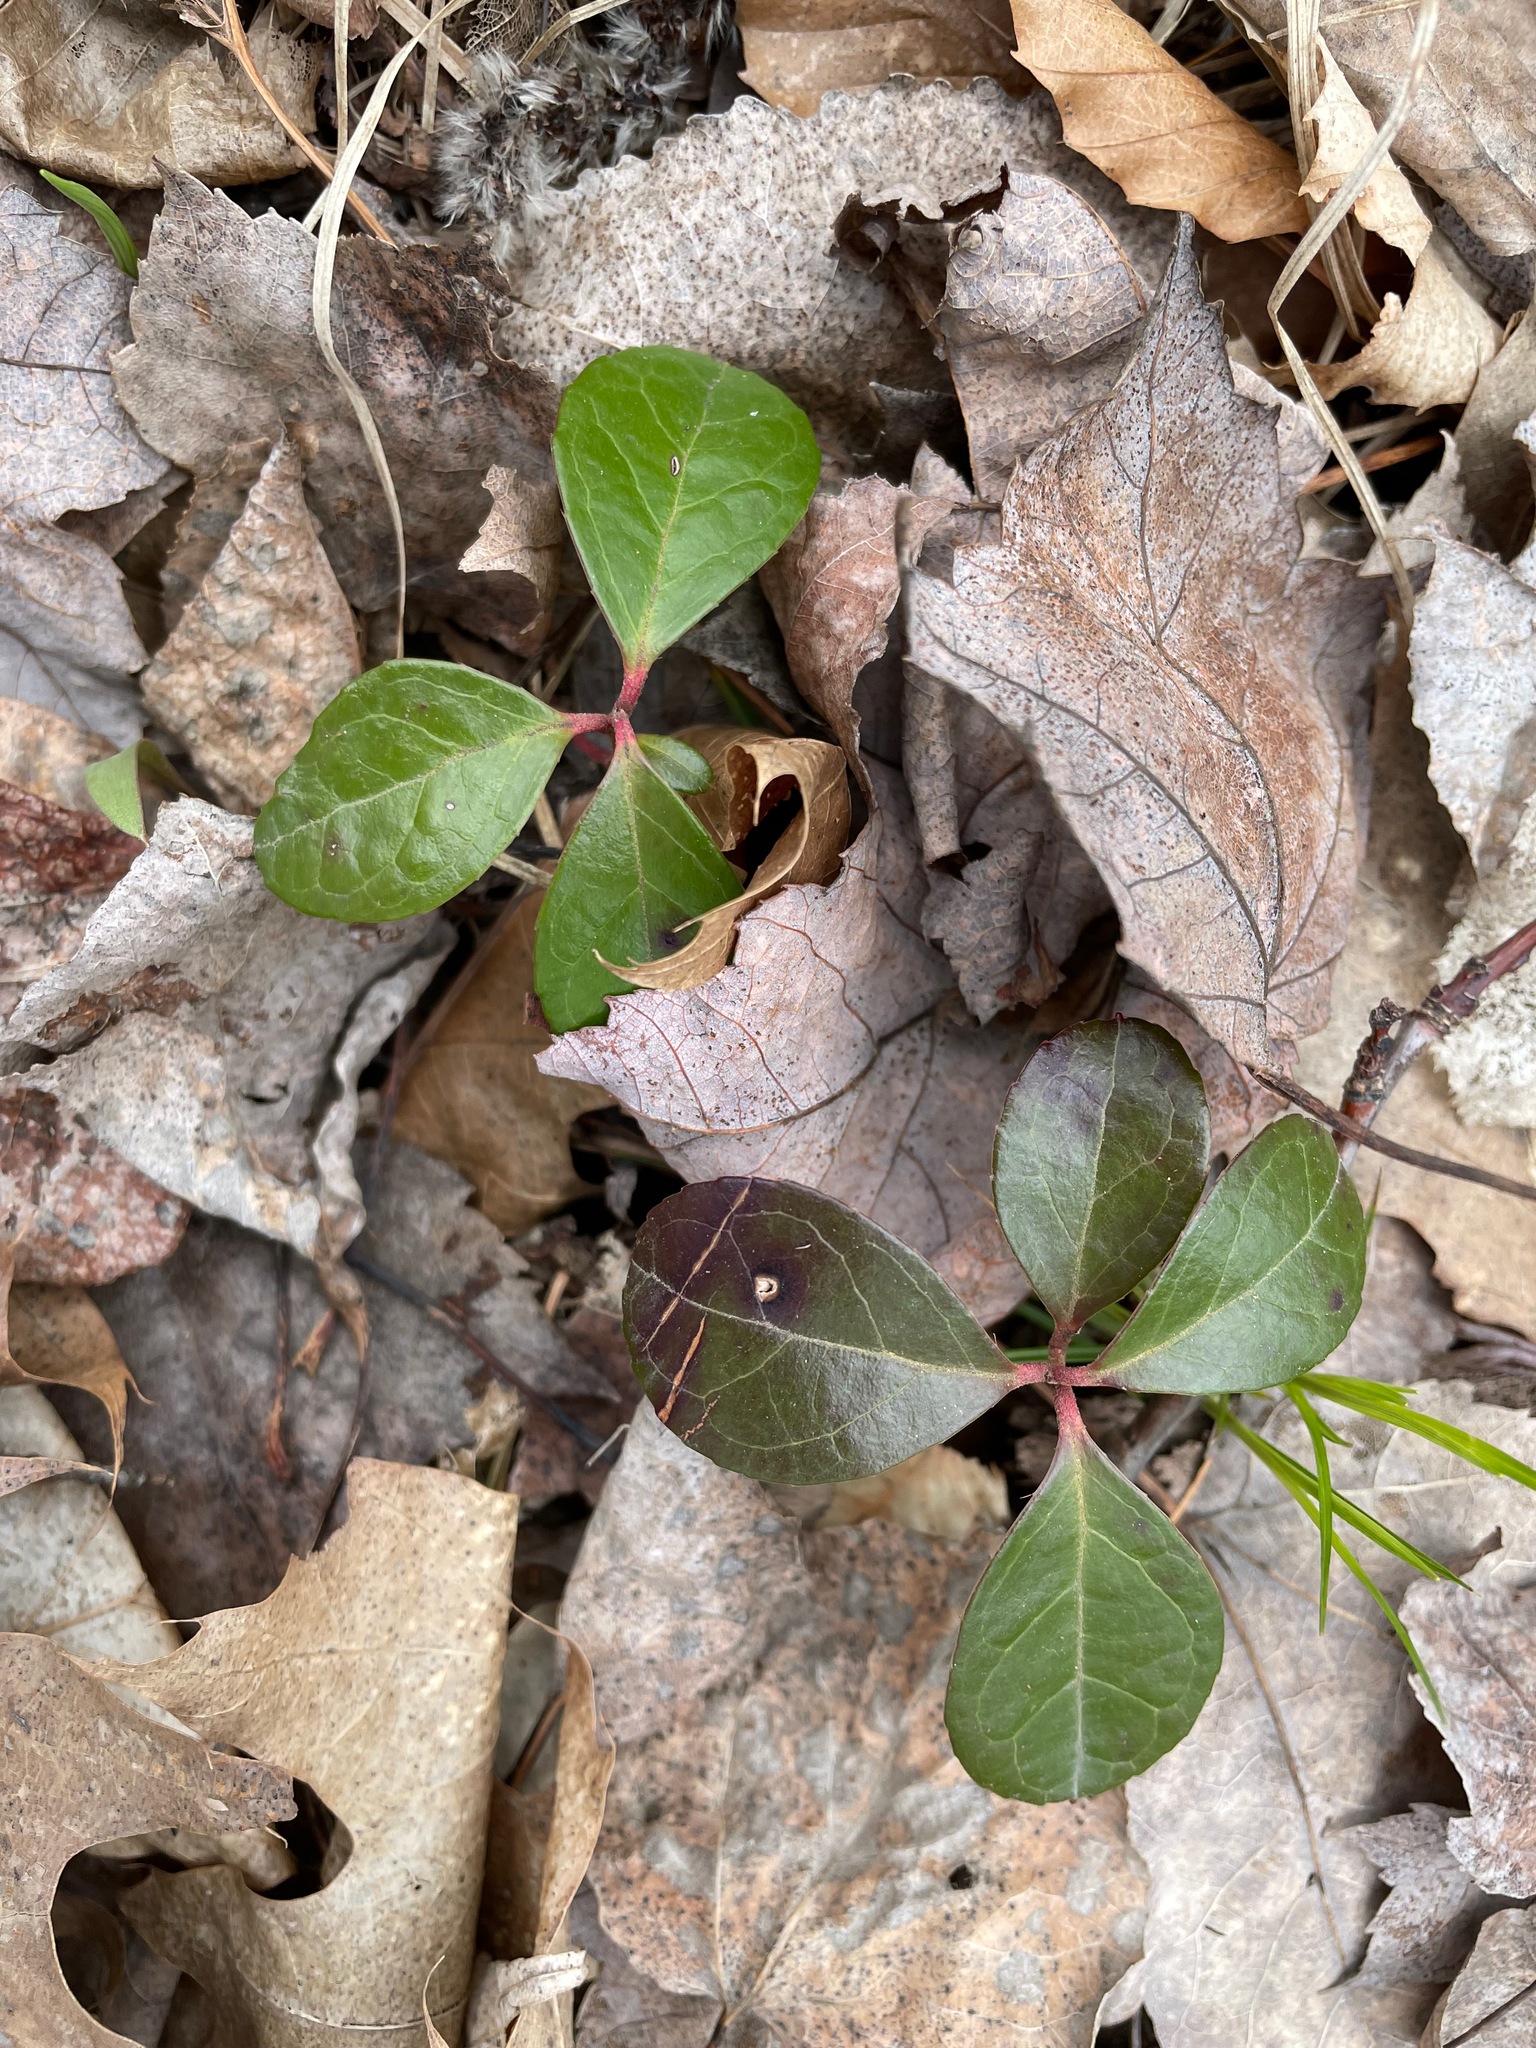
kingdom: Plantae
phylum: Tracheophyta
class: Magnoliopsida
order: Ericales
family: Ericaceae
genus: Gaultheria
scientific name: Gaultheria procumbens
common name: Checkerberry
